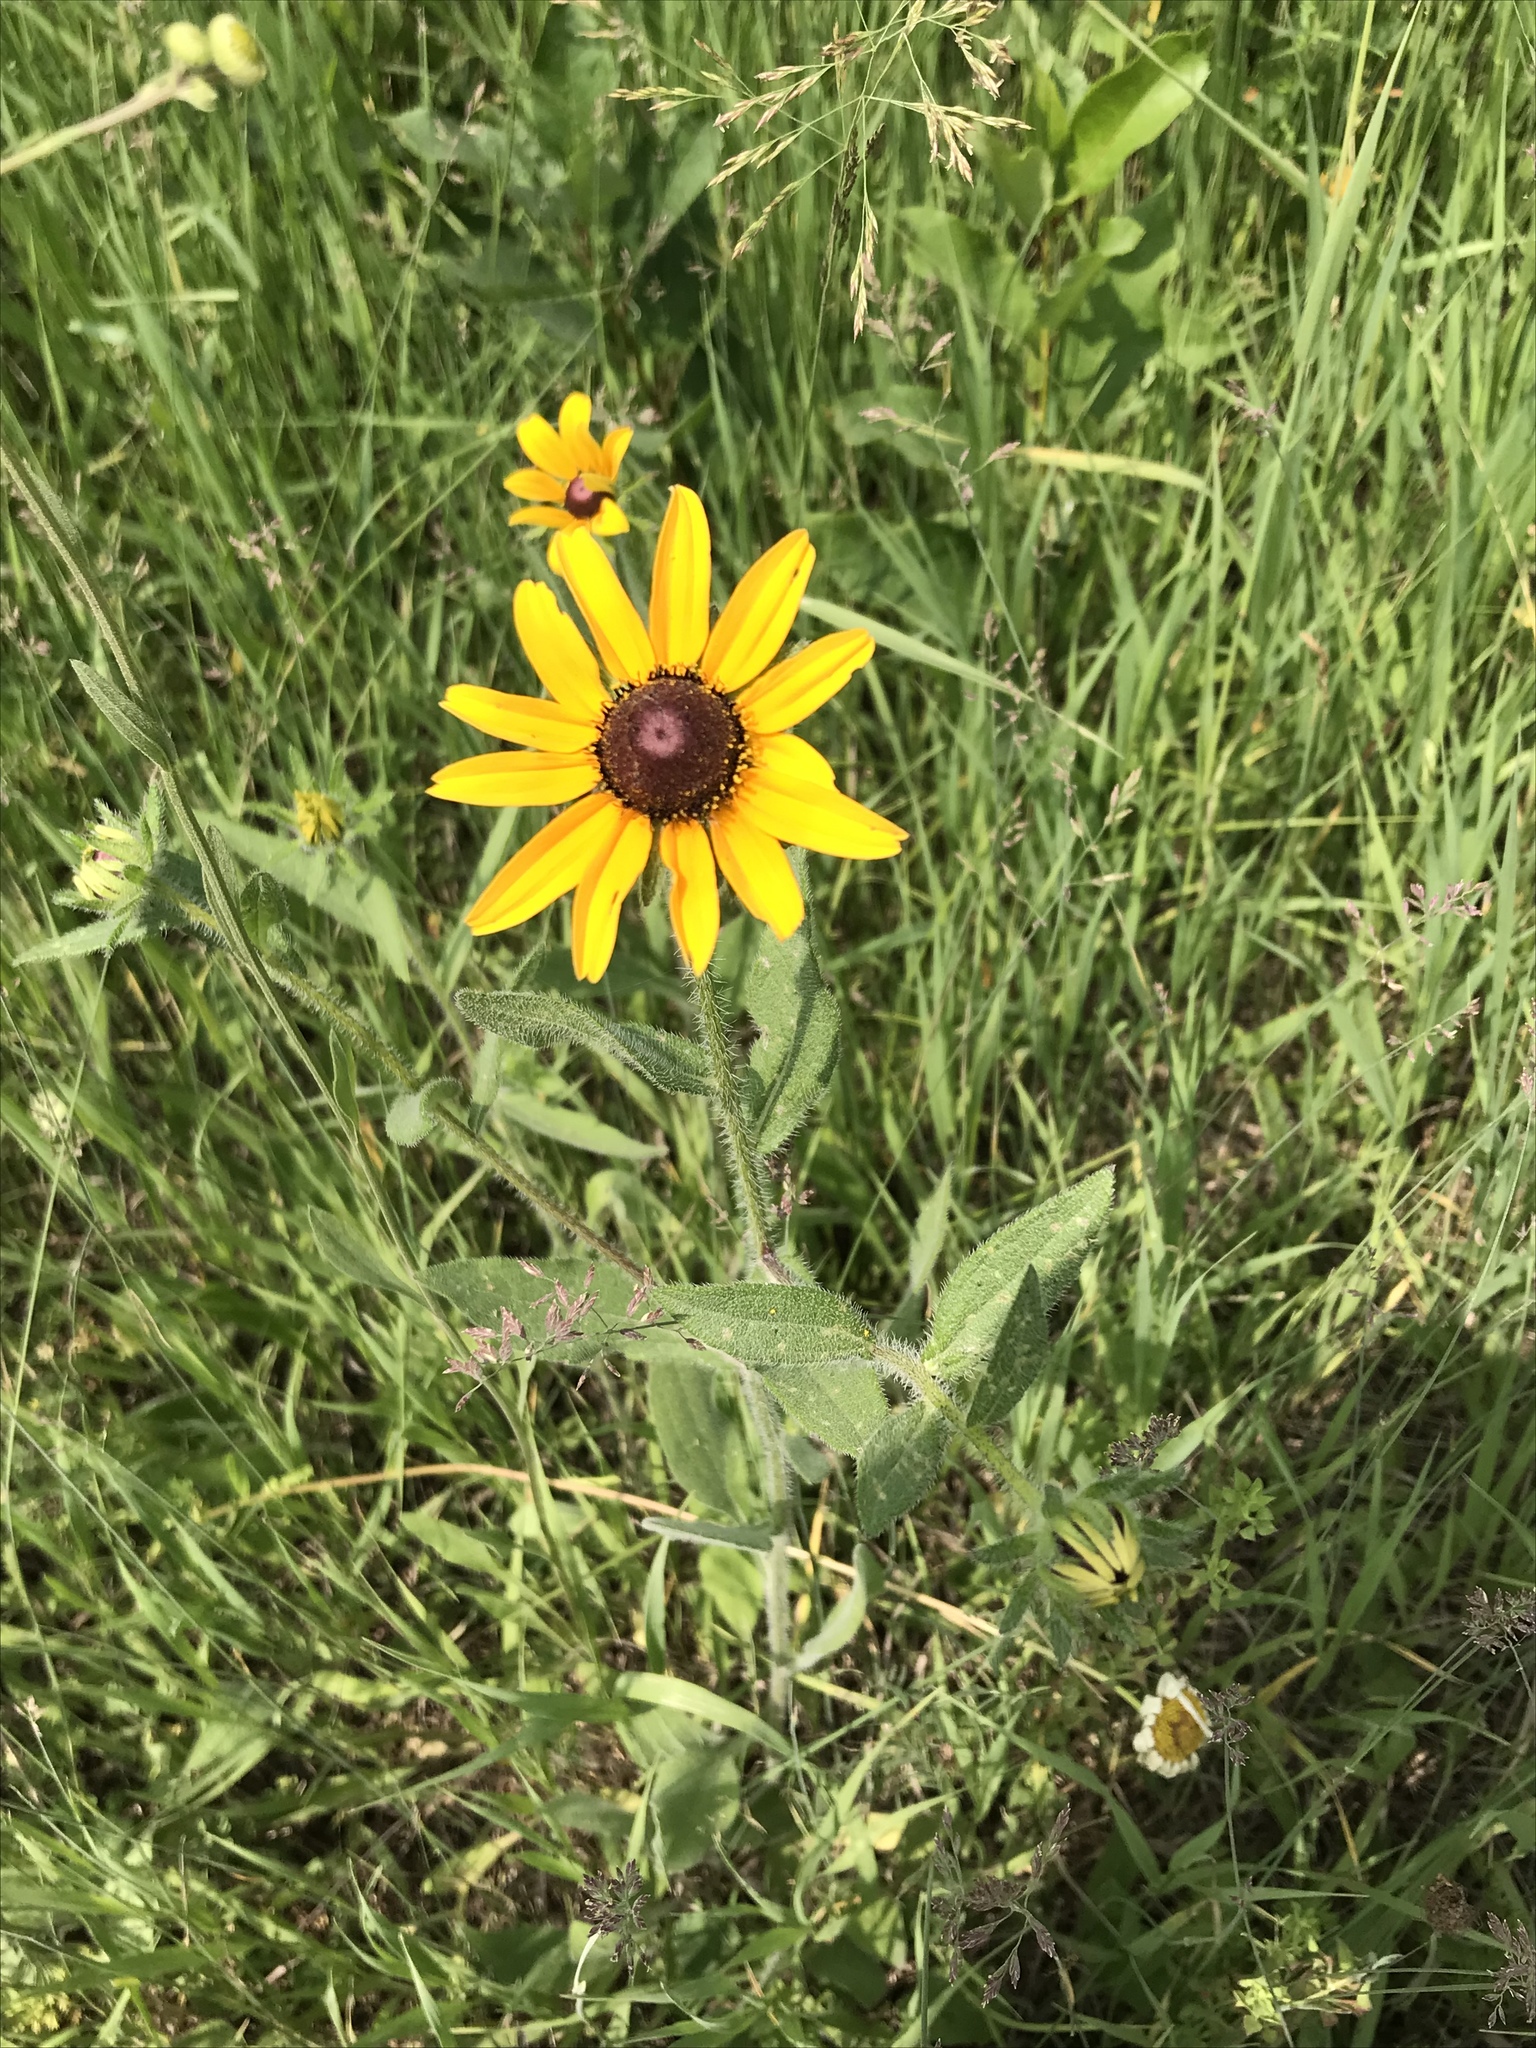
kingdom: Plantae
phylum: Tracheophyta
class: Magnoliopsida
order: Asterales
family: Asteraceae
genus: Rudbeckia
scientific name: Rudbeckia hirta
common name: Black-eyed-susan
